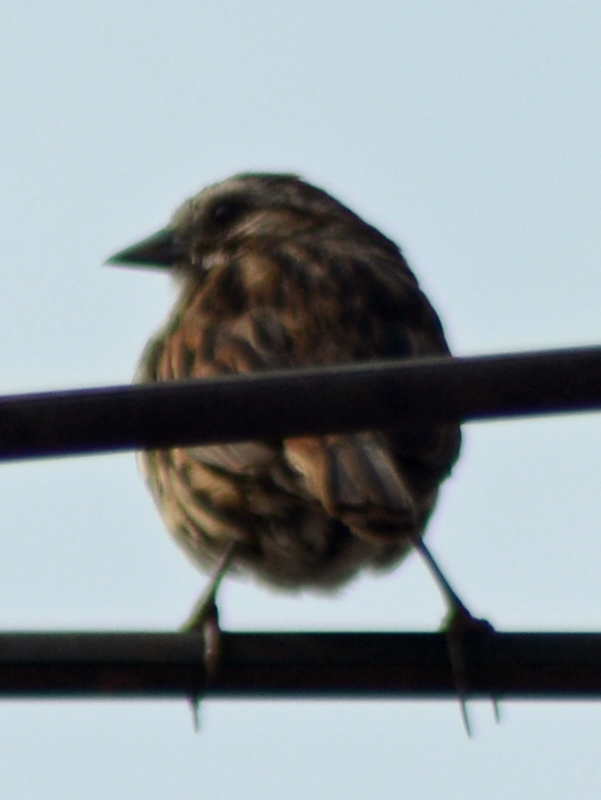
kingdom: Animalia
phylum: Chordata
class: Aves
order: Passeriformes
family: Passerellidae
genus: Melospiza
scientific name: Melospiza melodia
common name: Song sparrow
